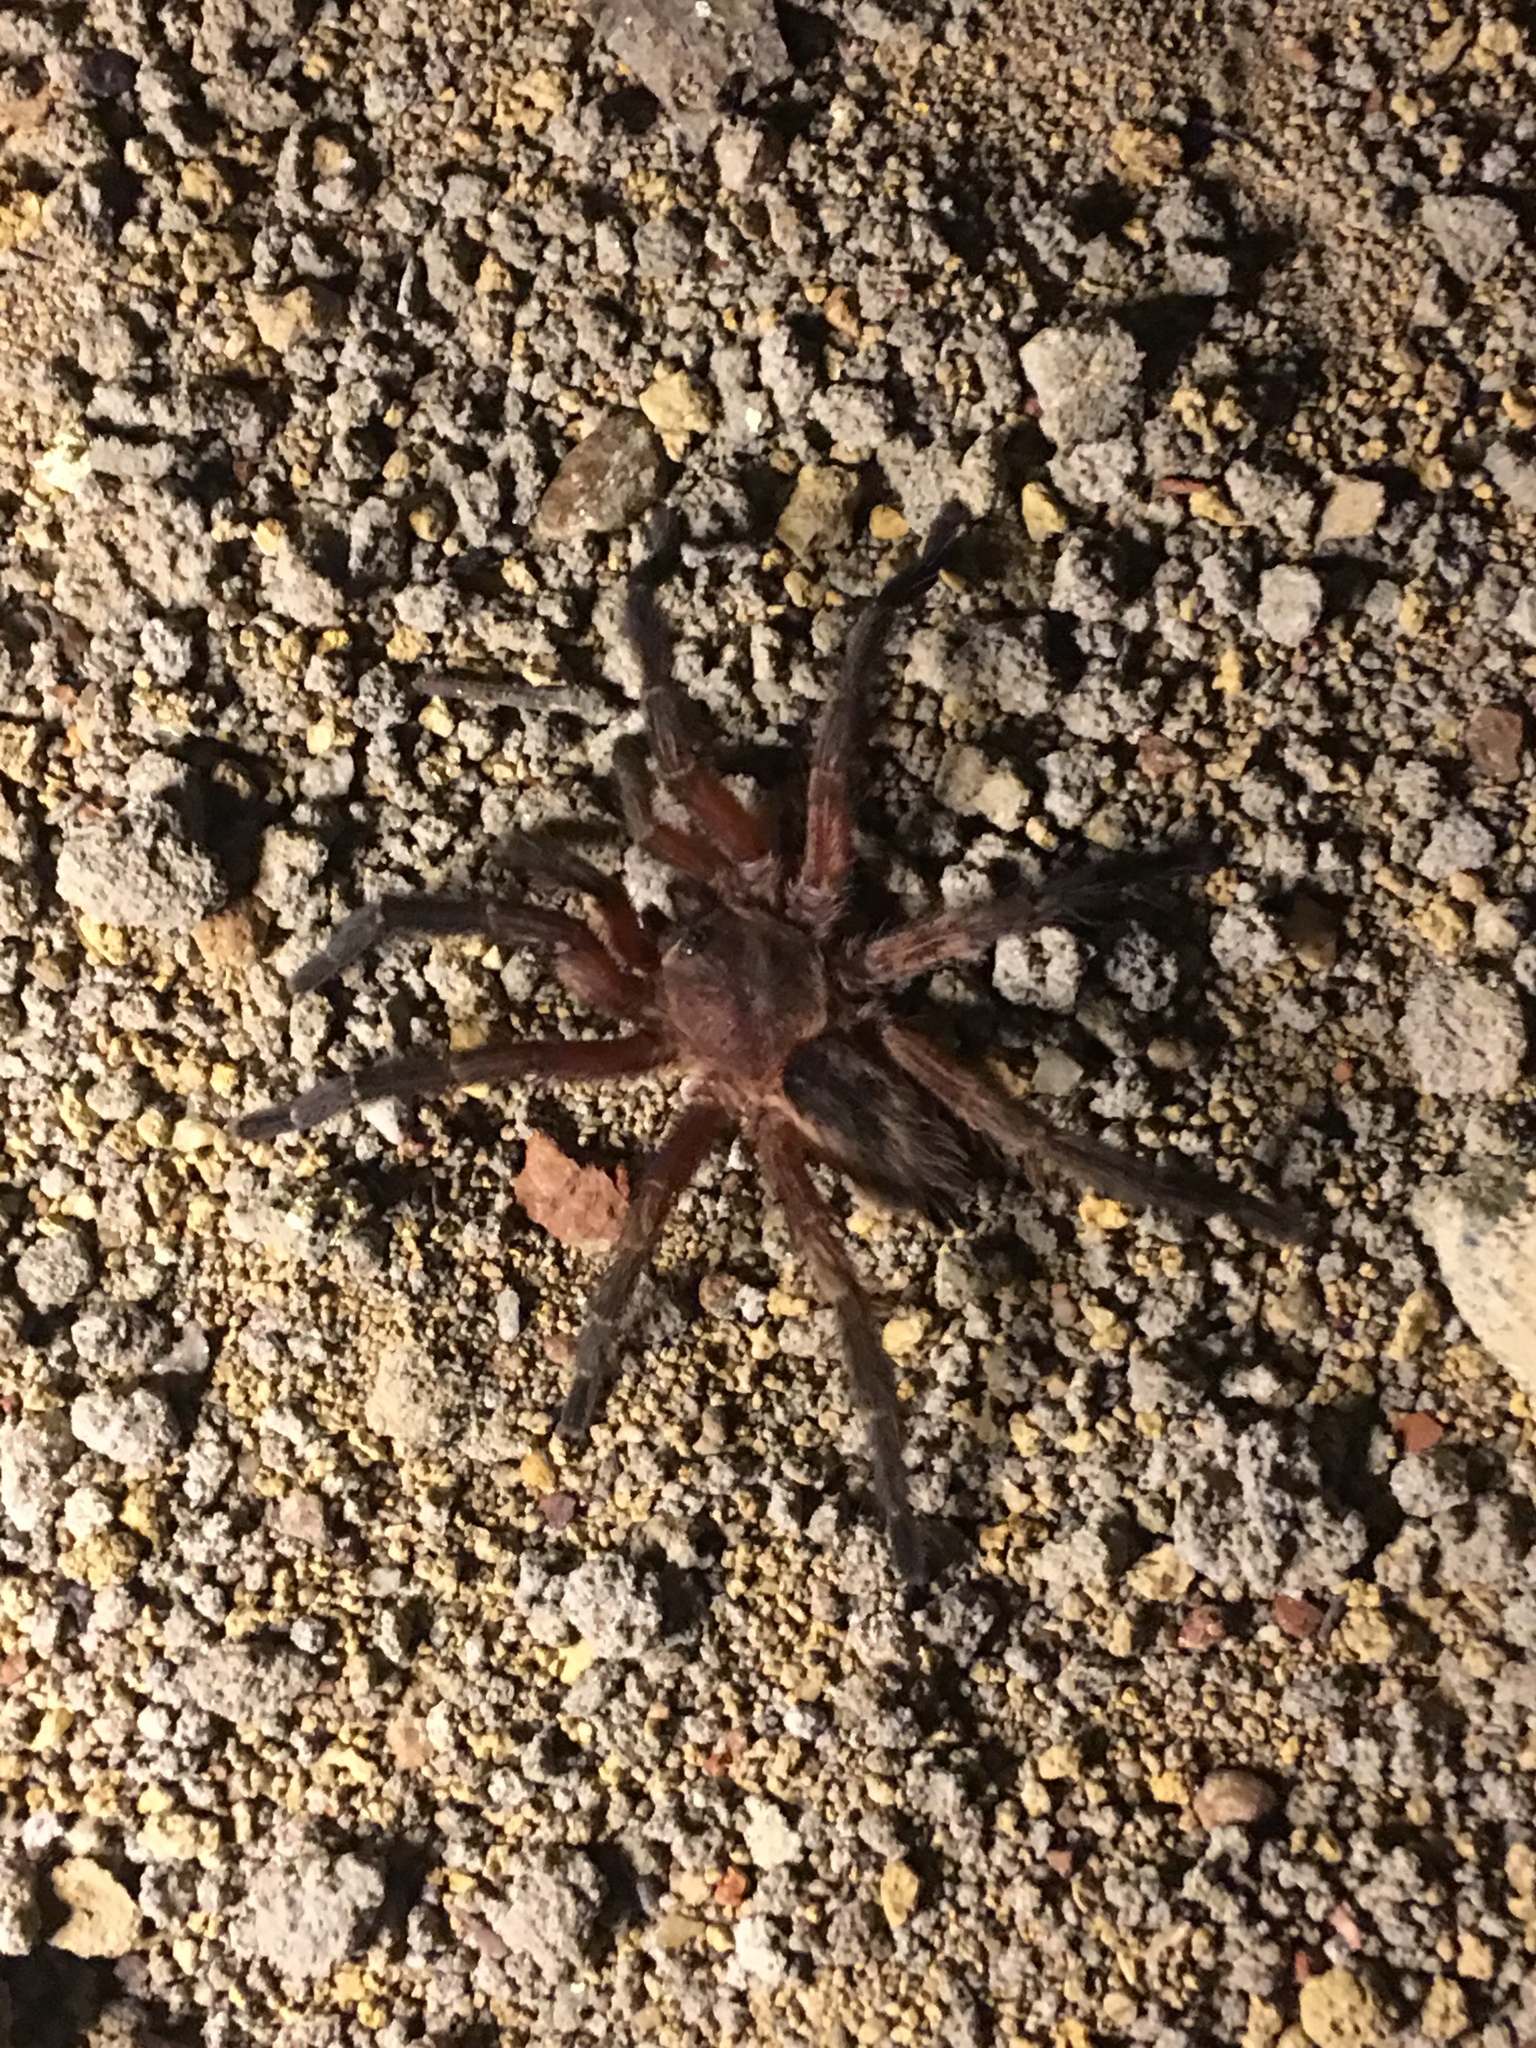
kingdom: Animalia
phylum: Arthropoda
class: Arachnida
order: Araneae
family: Theraphosidae
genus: Dolichothele
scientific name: Dolichothele rufoniger
